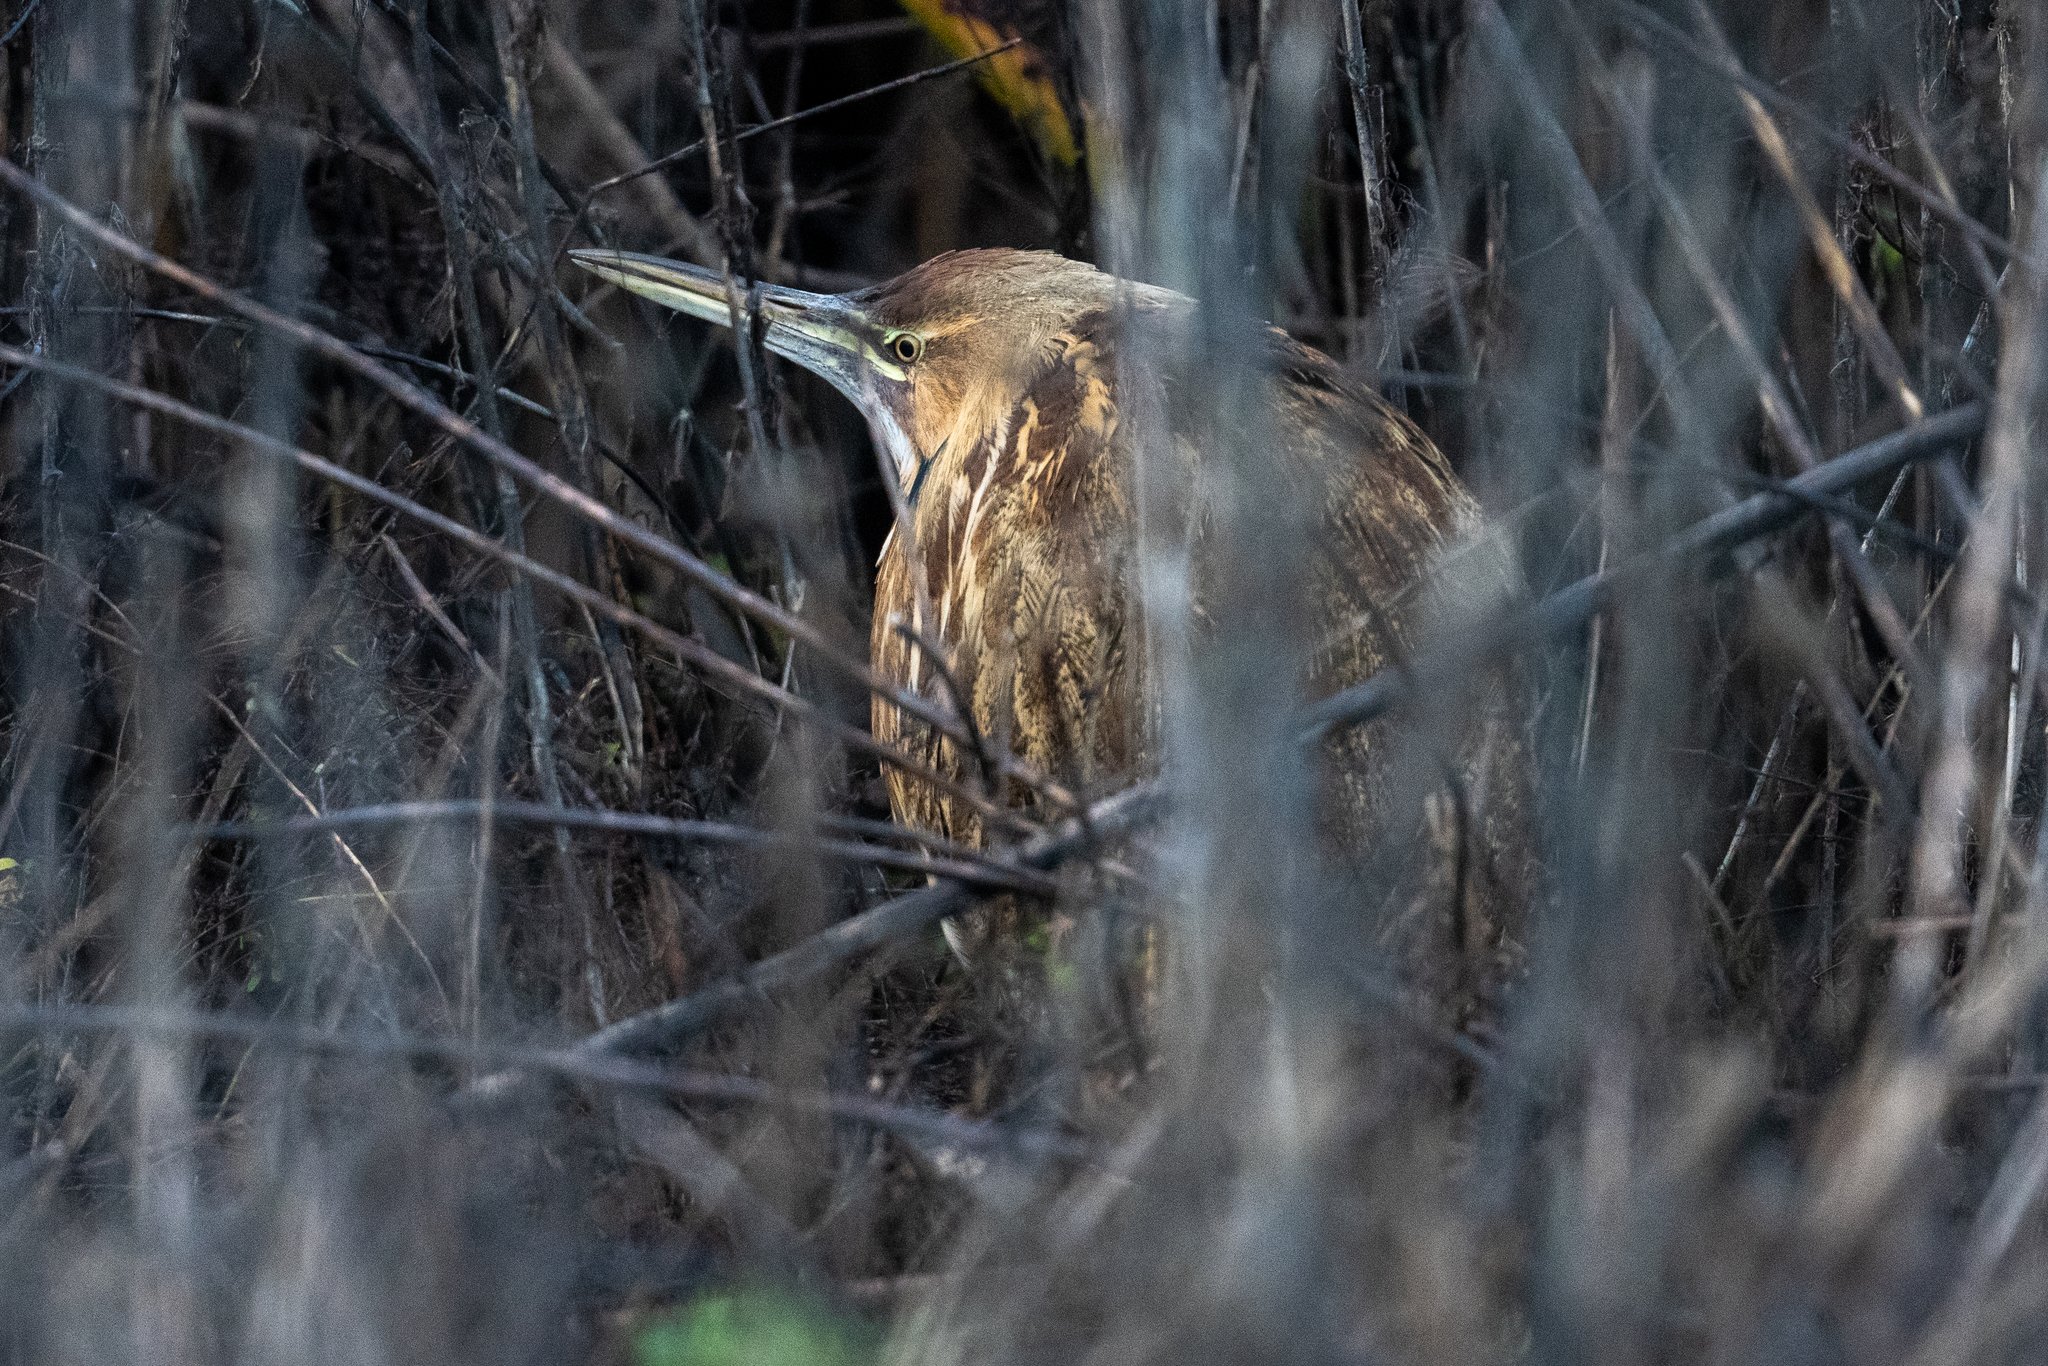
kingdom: Animalia
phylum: Chordata
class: Aves
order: Pelecaniformes
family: Ardeidae
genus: Botaurus
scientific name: Botaurus lentiginosus
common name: American bittern
